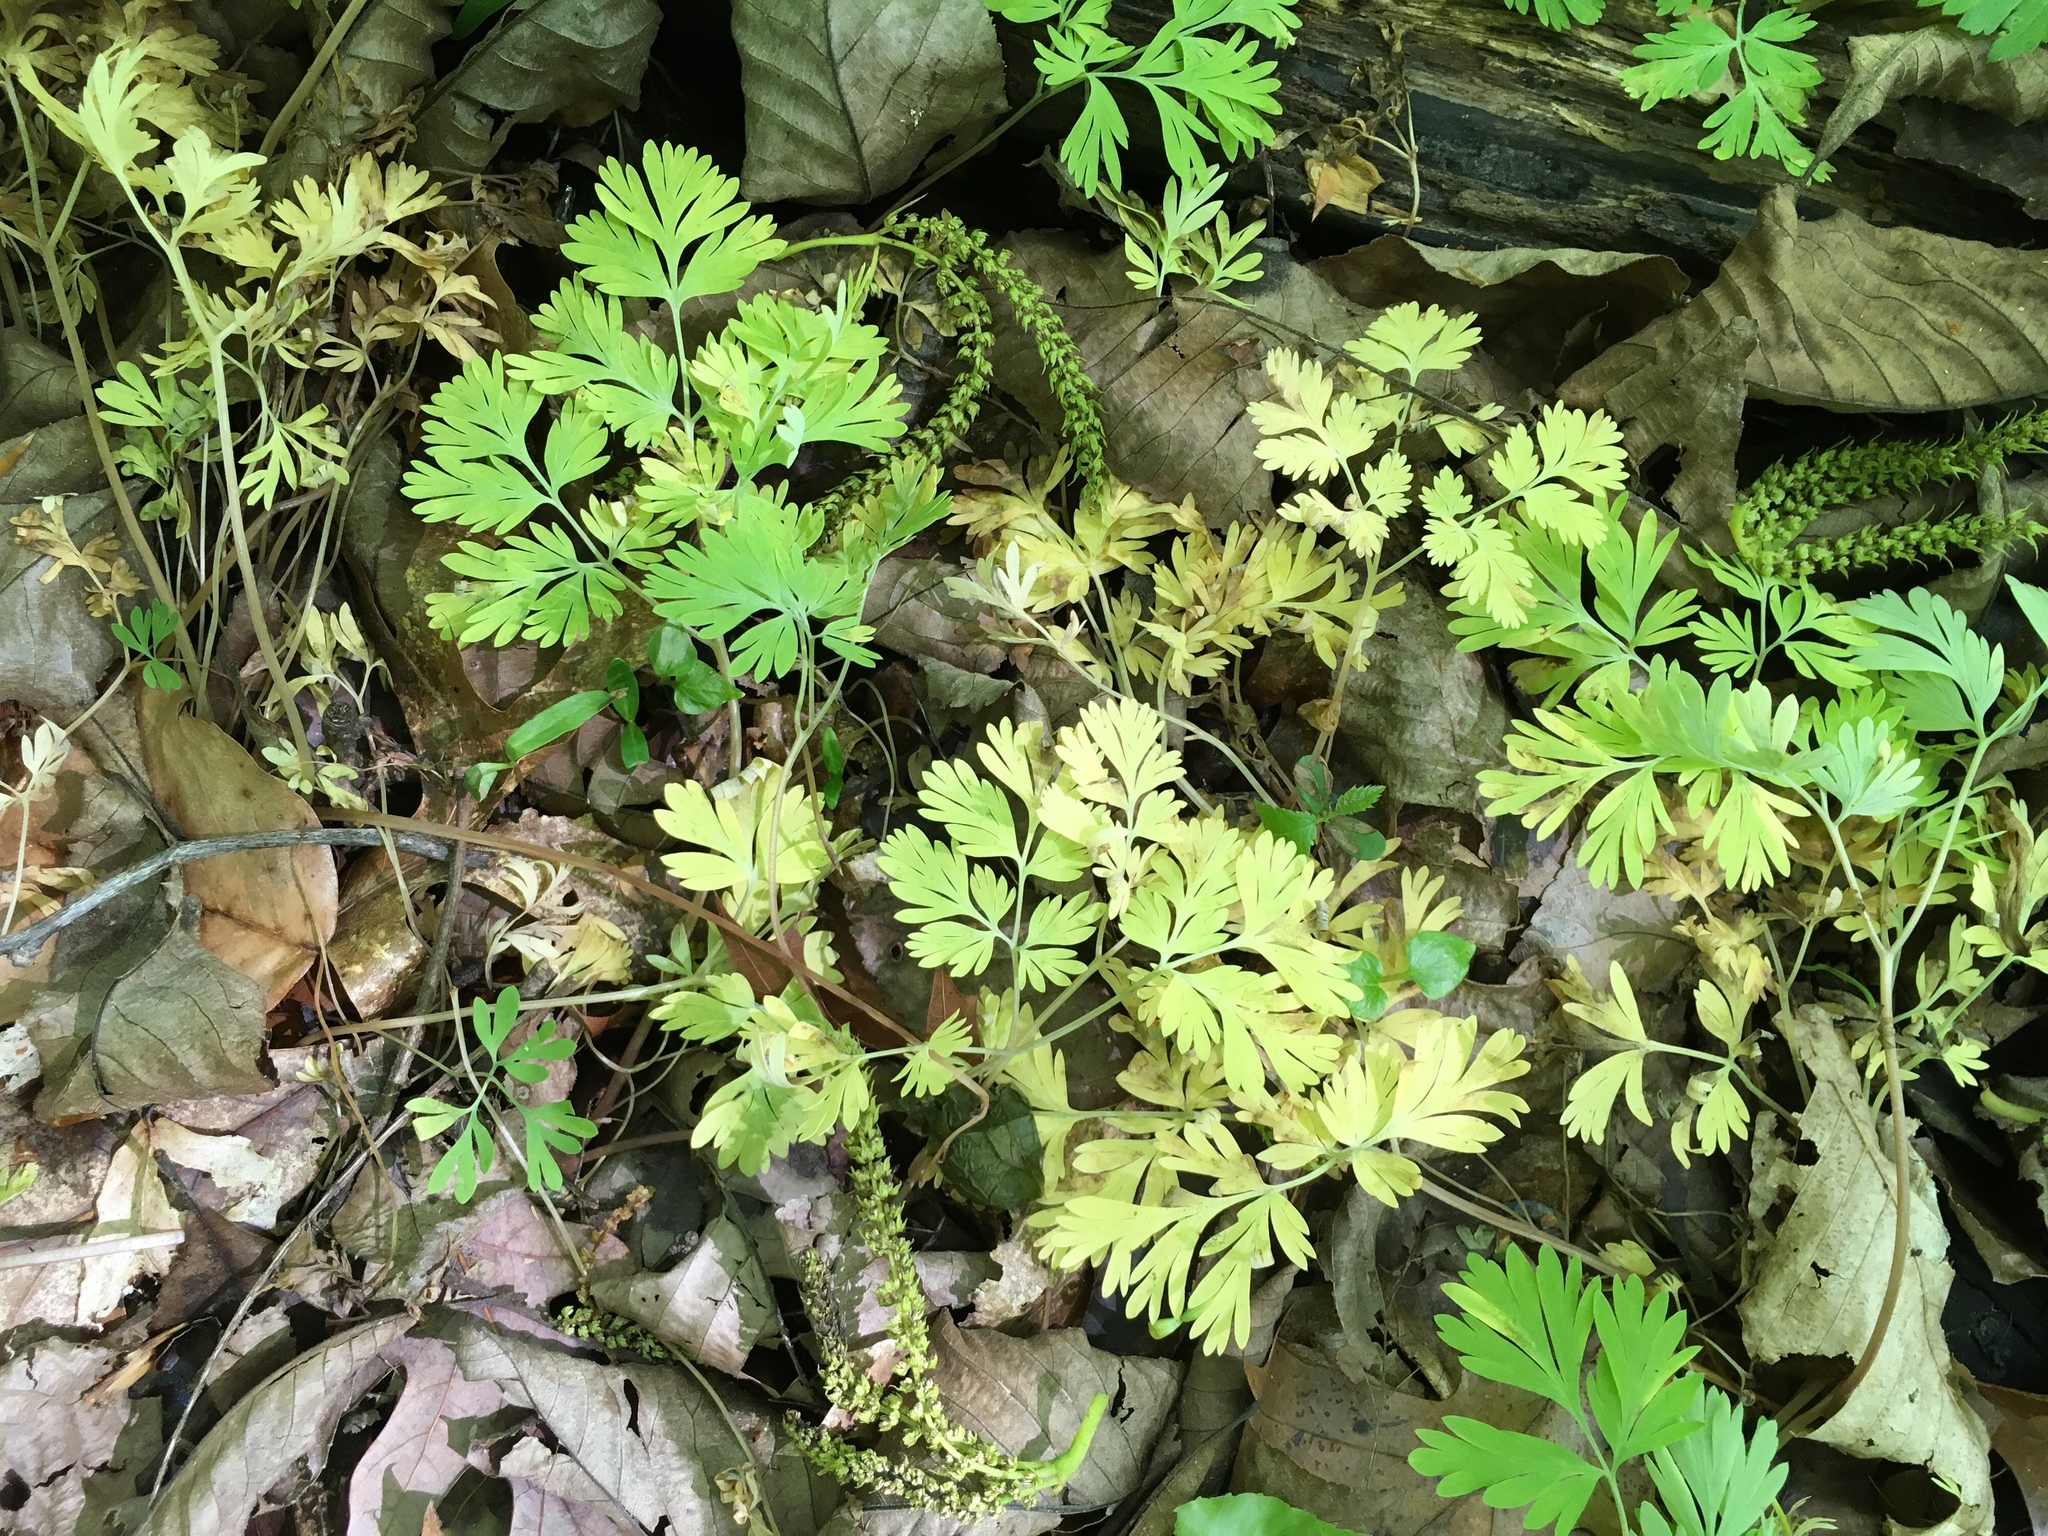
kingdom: Plantae
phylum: Tracheophyta
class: Magnoliopsida
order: Ranunculales
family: Papaveraceae
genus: Dicentra
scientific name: Dicentra cucullaria
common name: Dutchman's breeches
